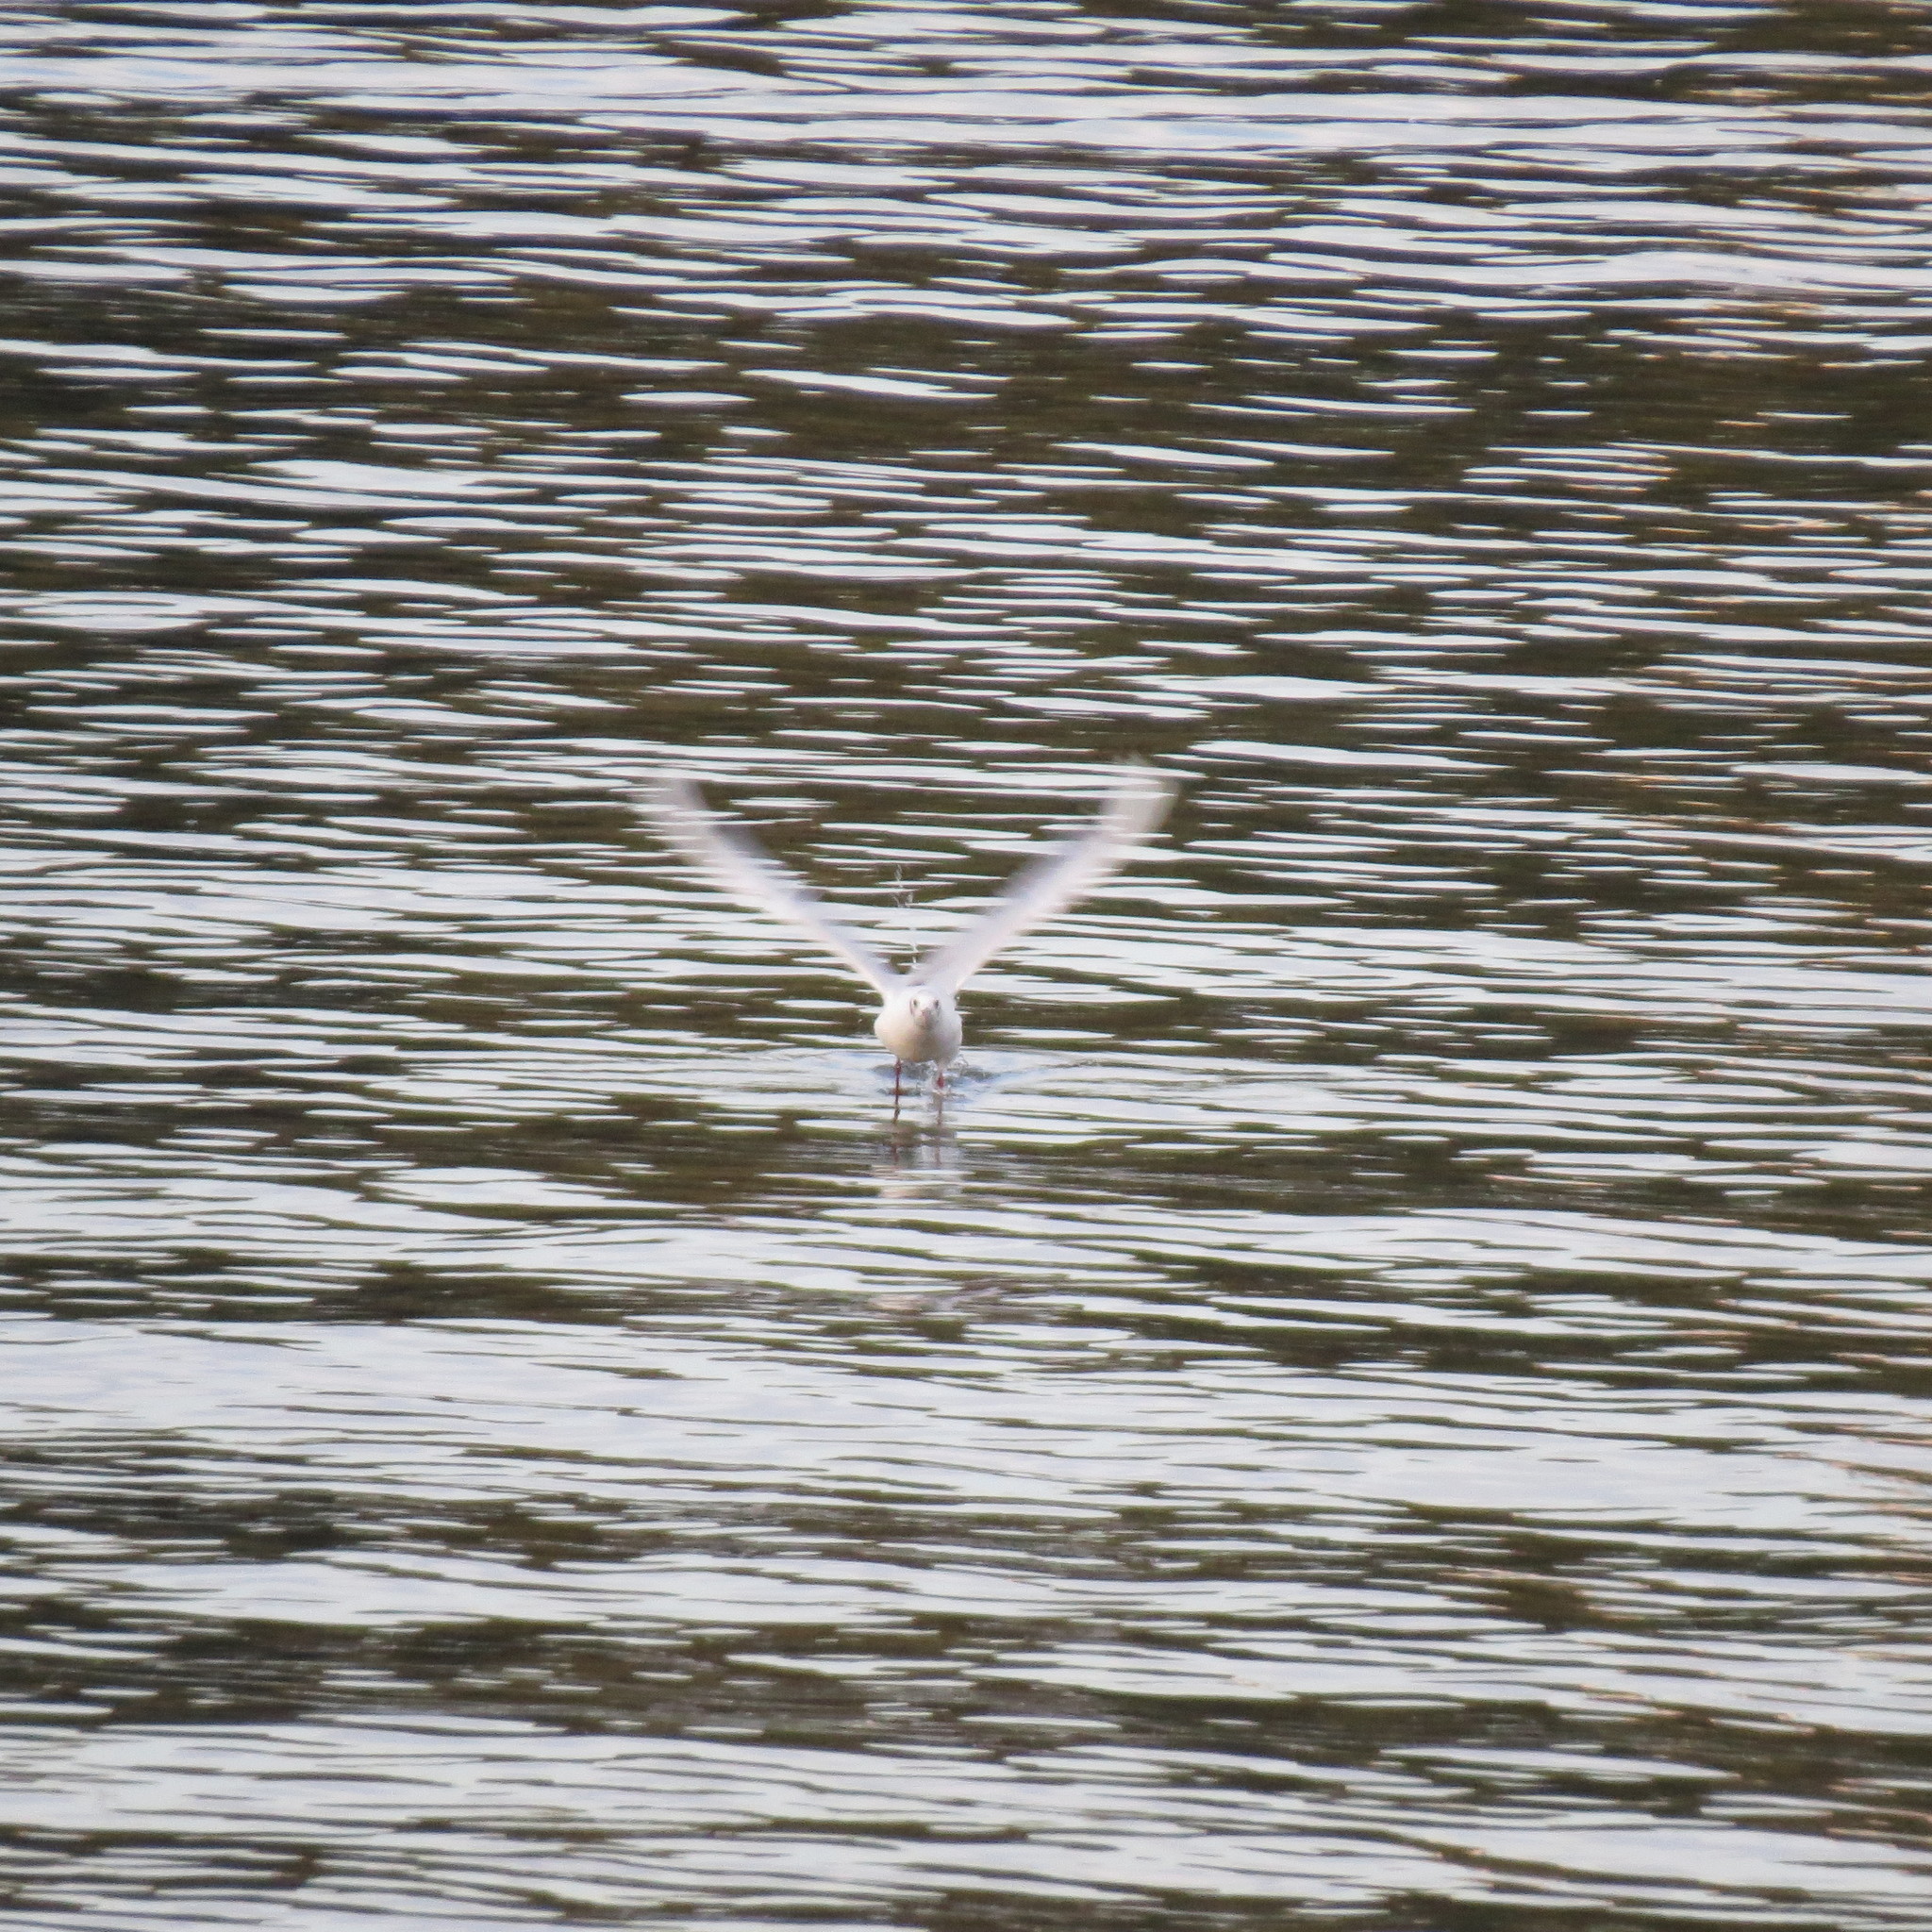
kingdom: Animalia
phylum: Chordata
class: Aves
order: Charadriiformes
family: Laridae
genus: Chroicocephalus
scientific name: Chroicocephalus ridibundus
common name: Black-headed gull
